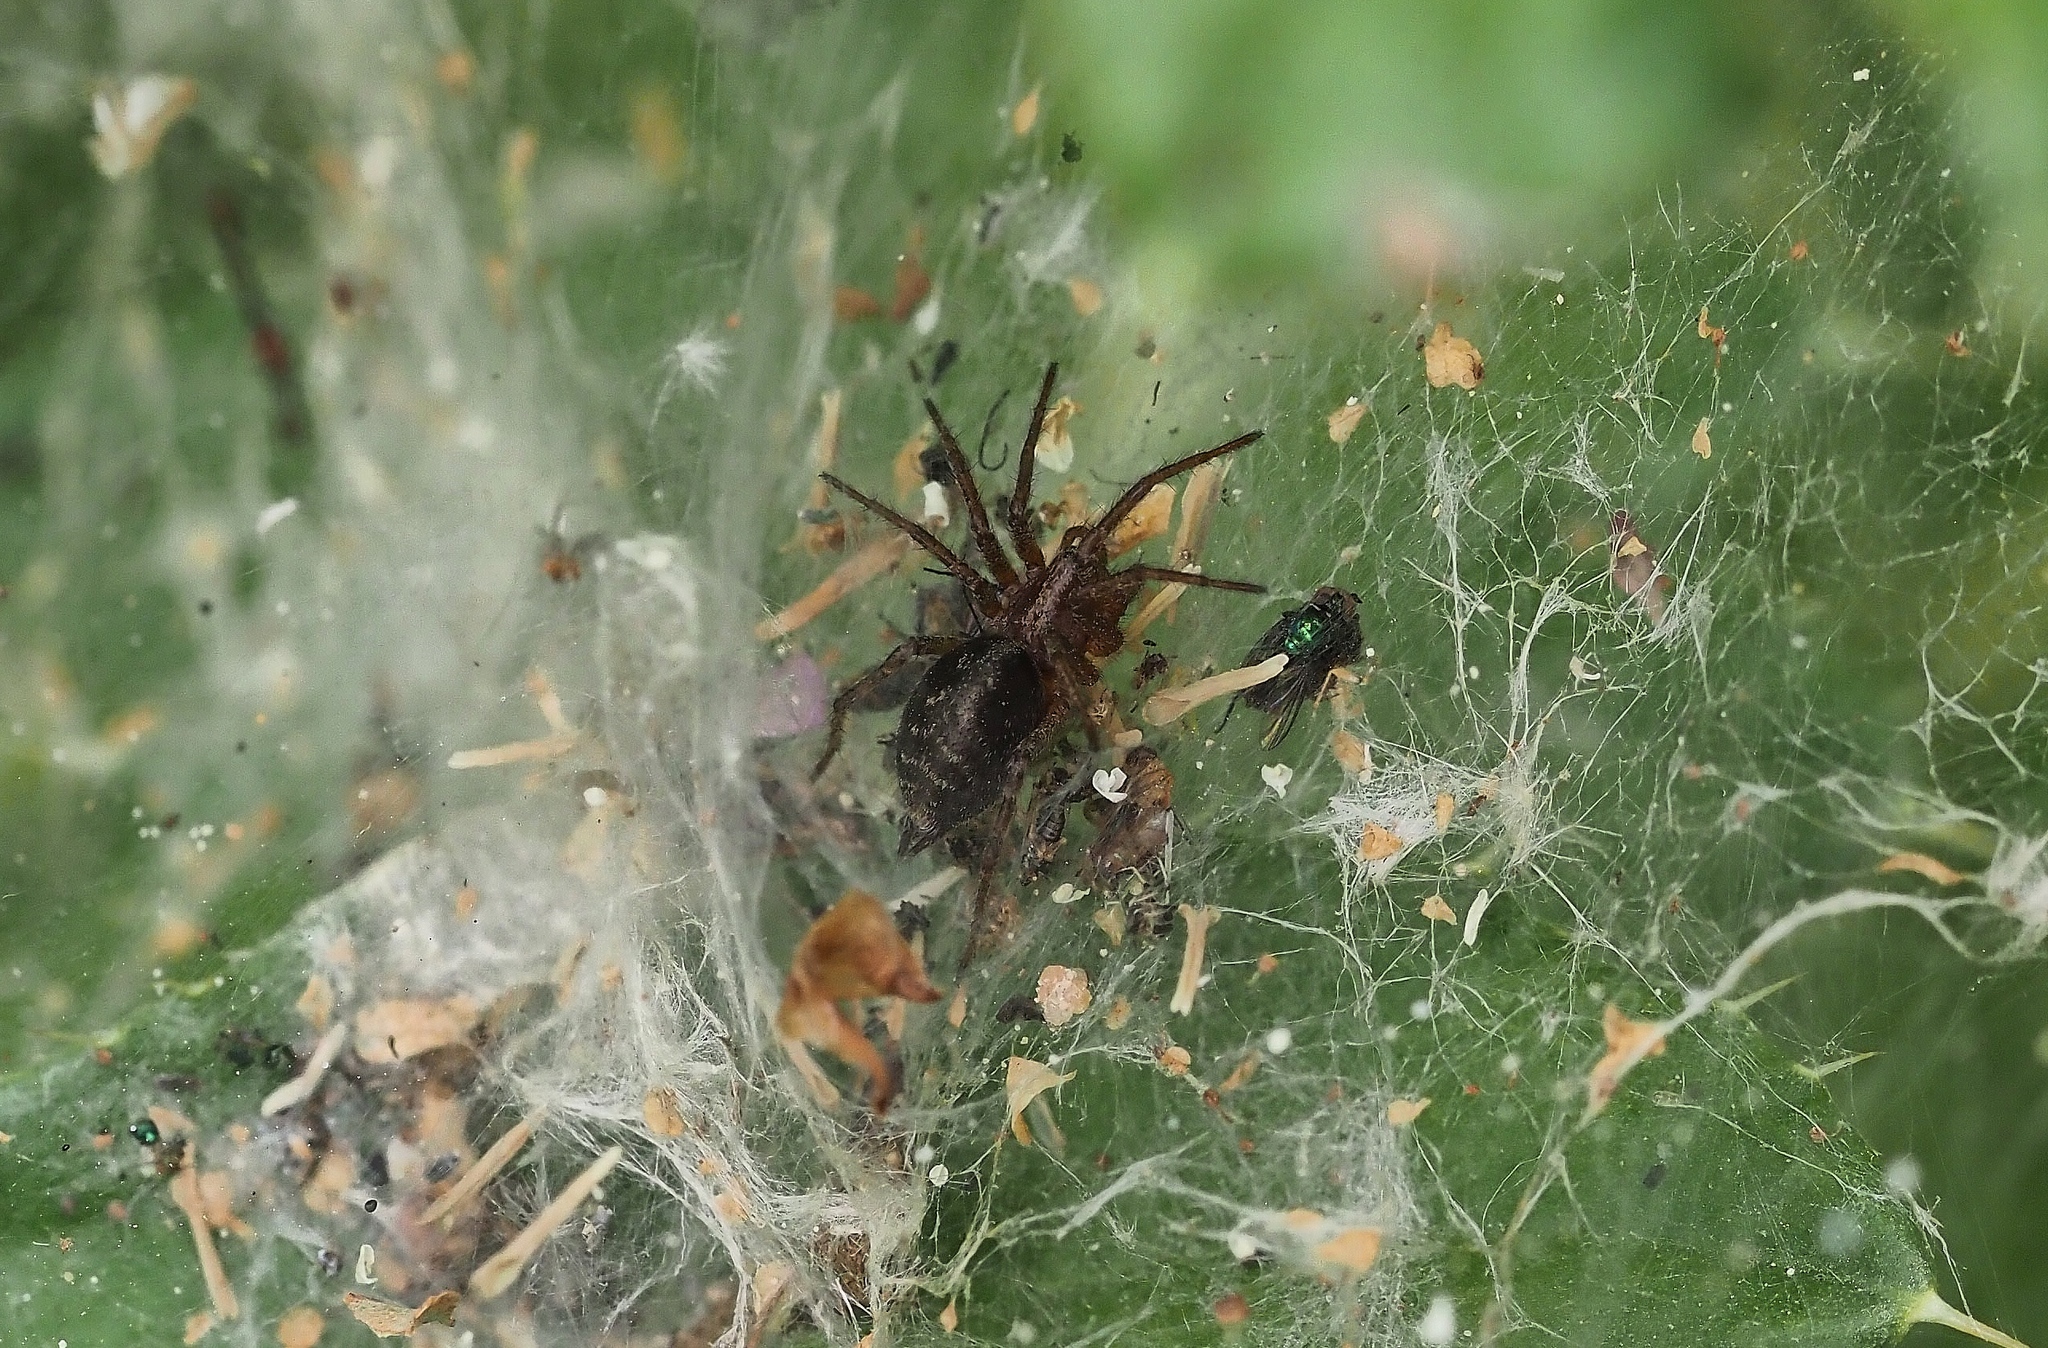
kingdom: Animalia
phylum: Arthropoda
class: Arachnida
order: Araneae
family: Agelenidae
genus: Agelena
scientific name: Agelena labyrinthica
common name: Labyrinth spider
